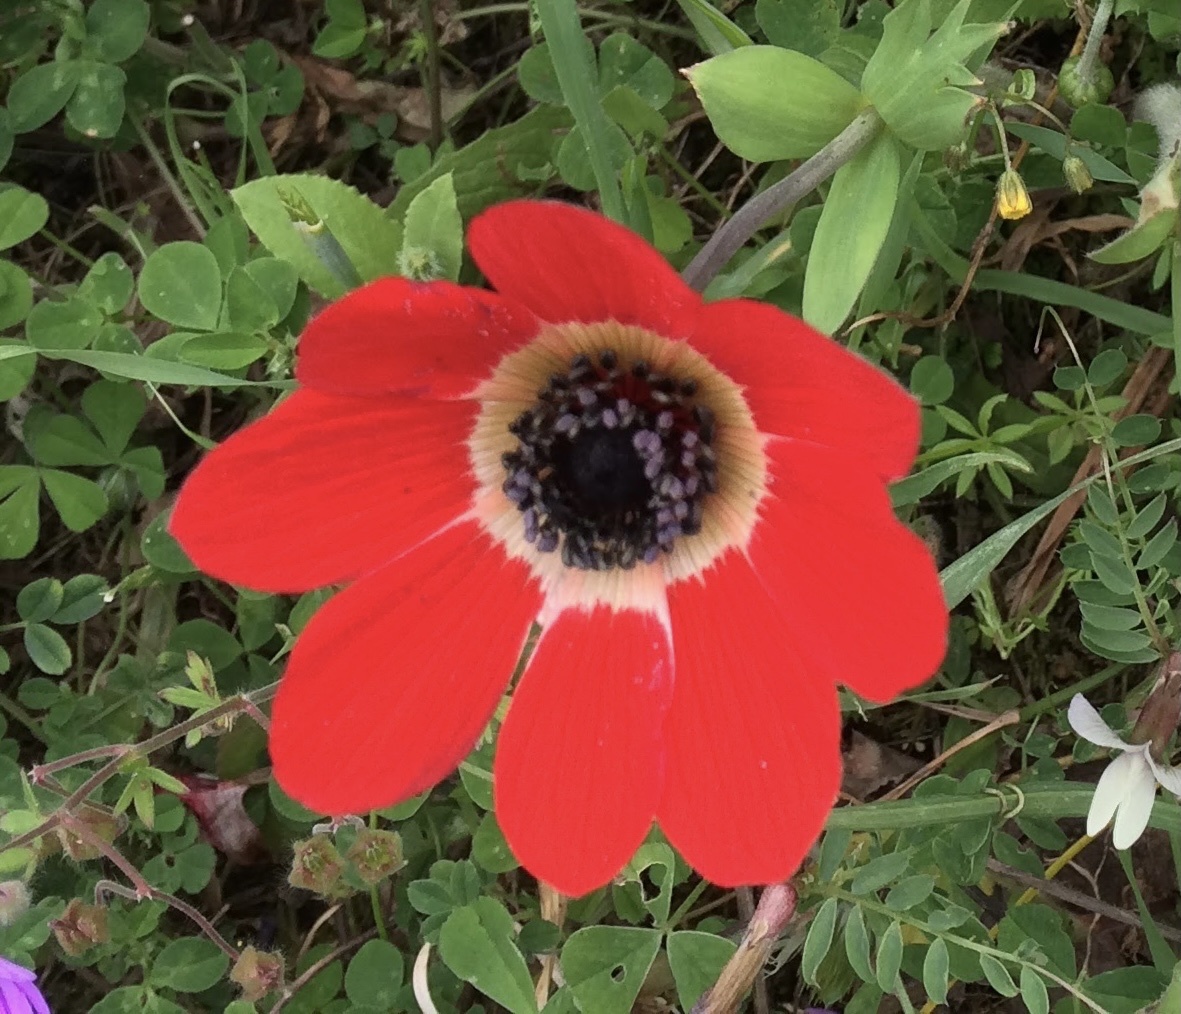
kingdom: Plantae
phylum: Tracheophyta
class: Magnoliopsida
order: Ranunculales
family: Ranunculaceae
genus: Anemone
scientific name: Anemone pavonina
